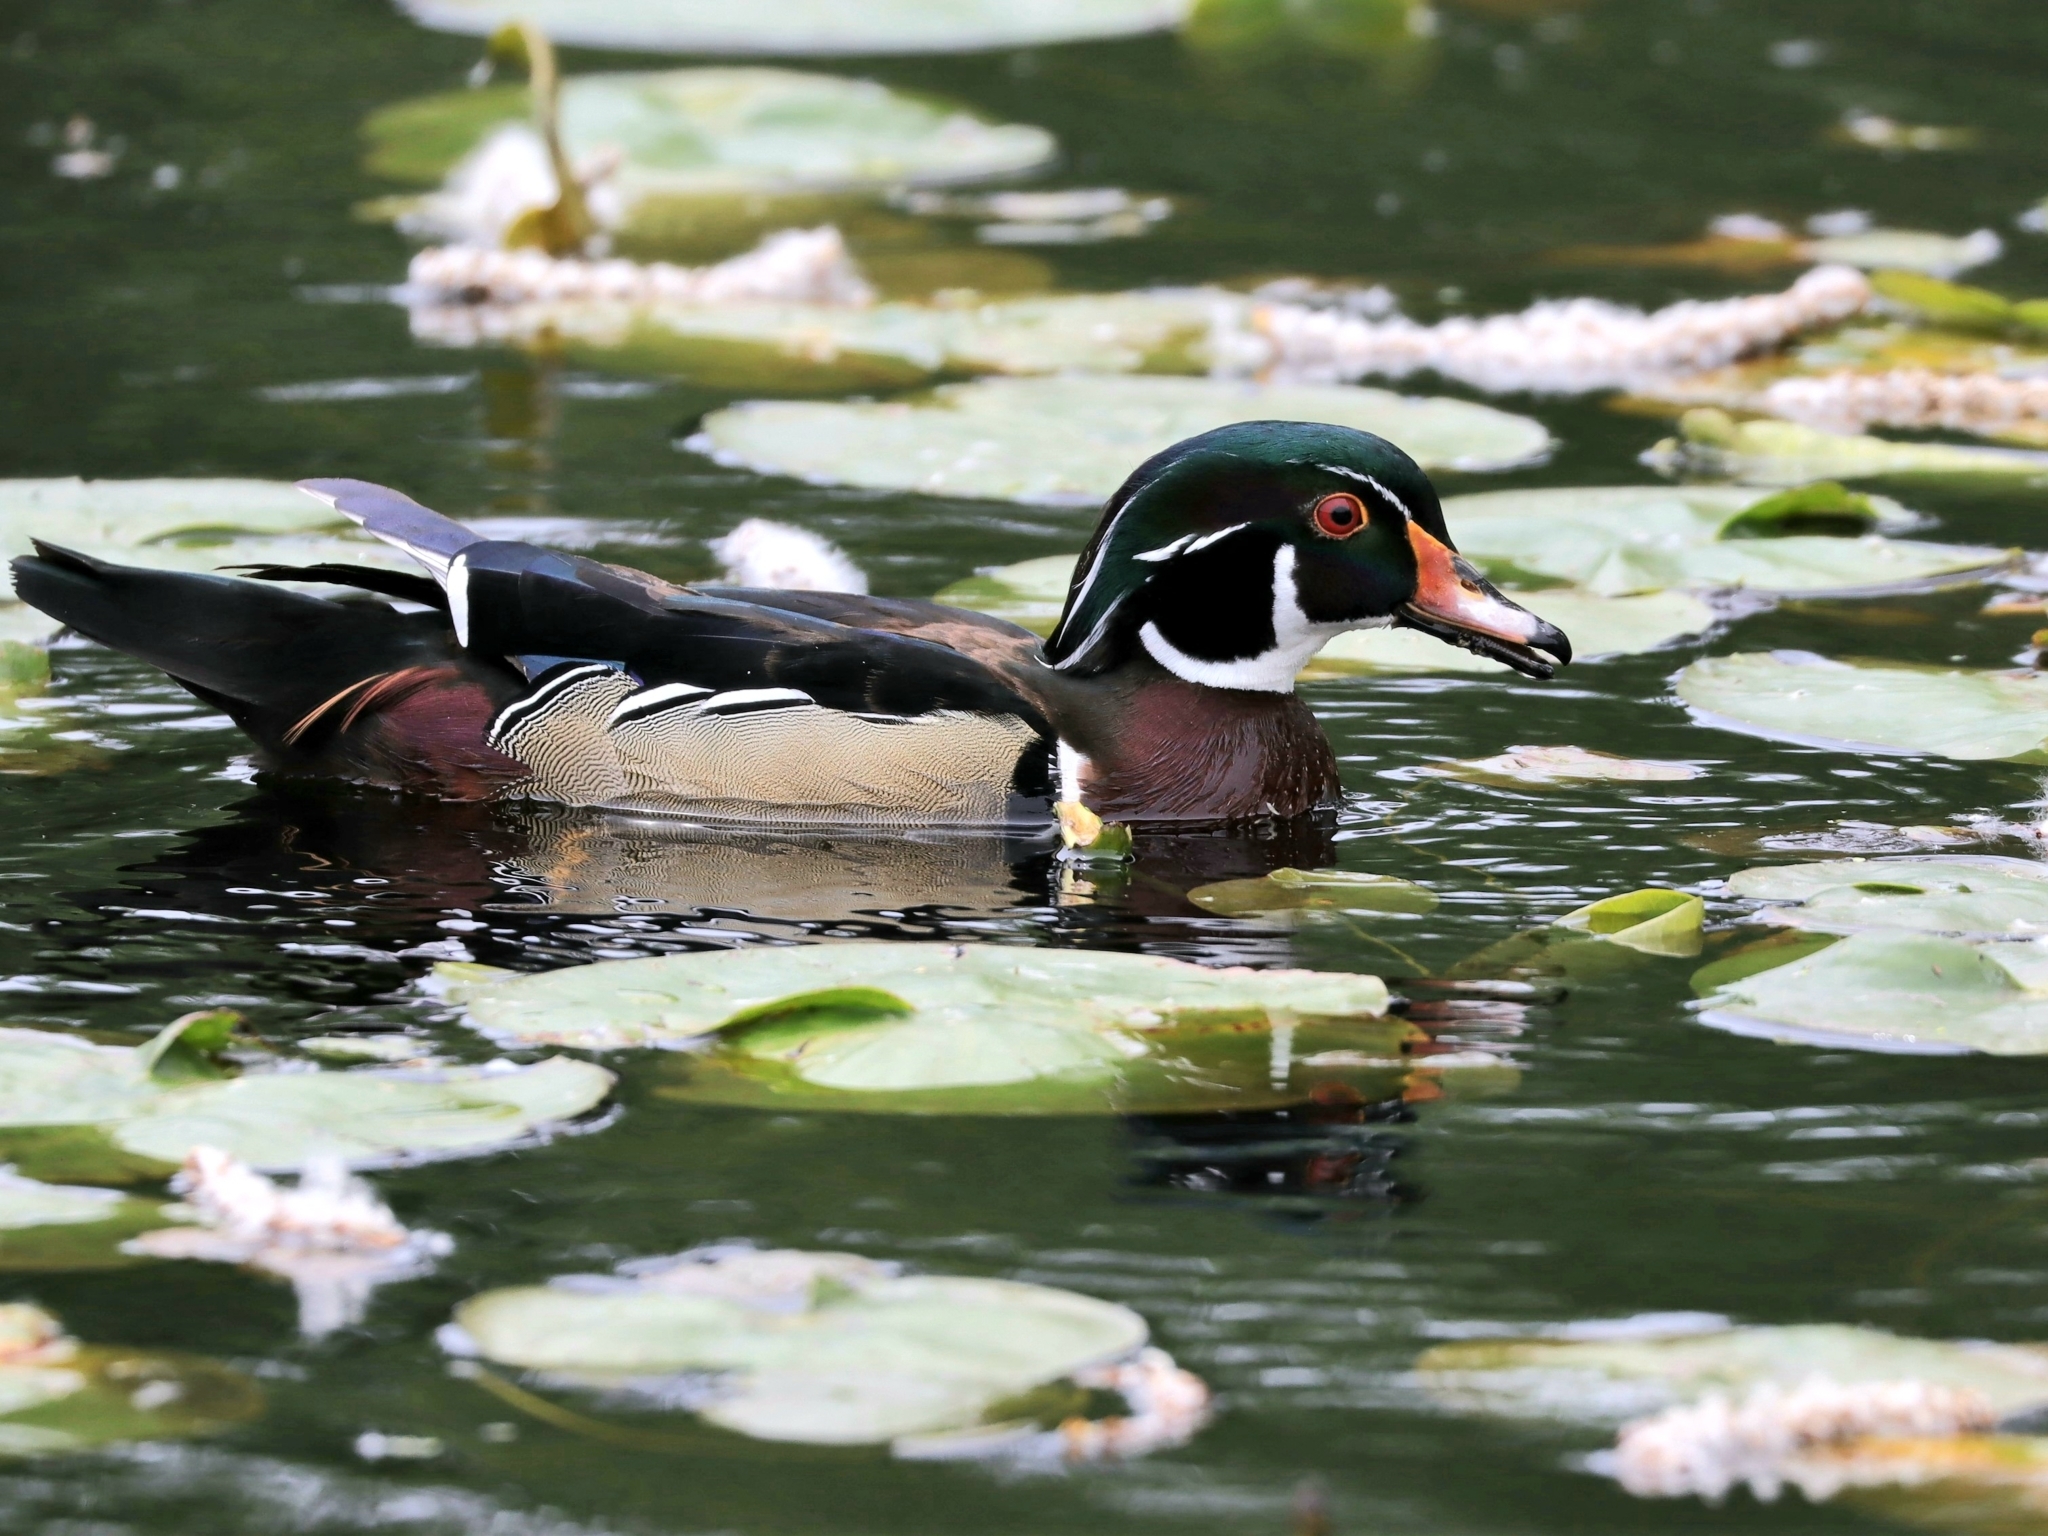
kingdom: Animalia
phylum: Chordata
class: Aves
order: Anseriformes
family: Anatidae
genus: Aix
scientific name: Aix sponsa
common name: Wood duck
